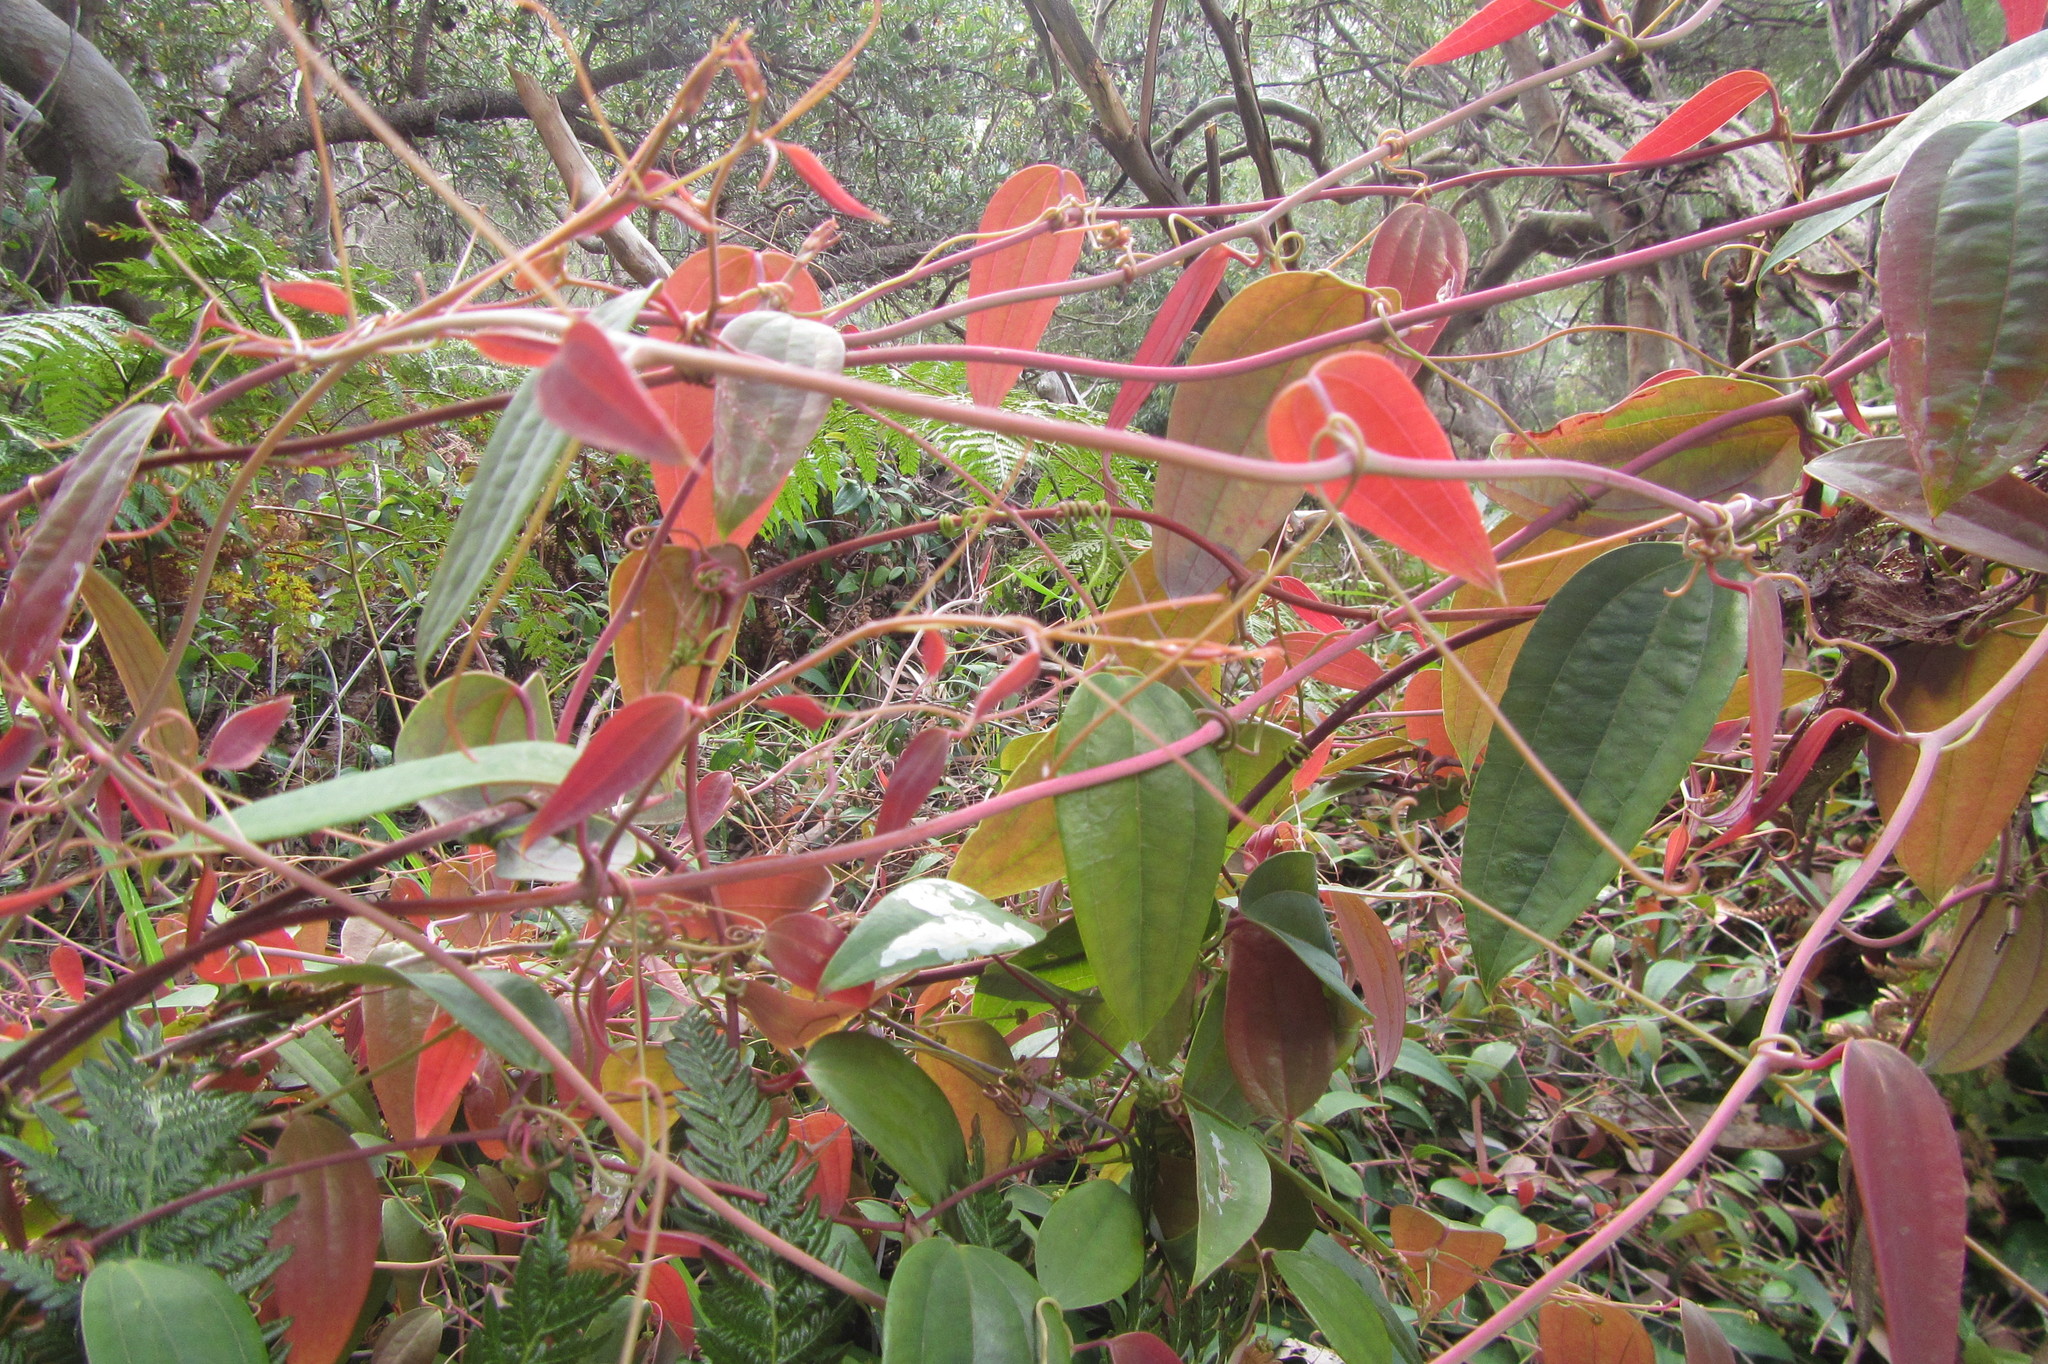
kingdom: Plantae
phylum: Tracheophyta
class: Liliopsida
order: Liliales
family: Smilacaceae
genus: Smilax
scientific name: Smilax glyciphylla
